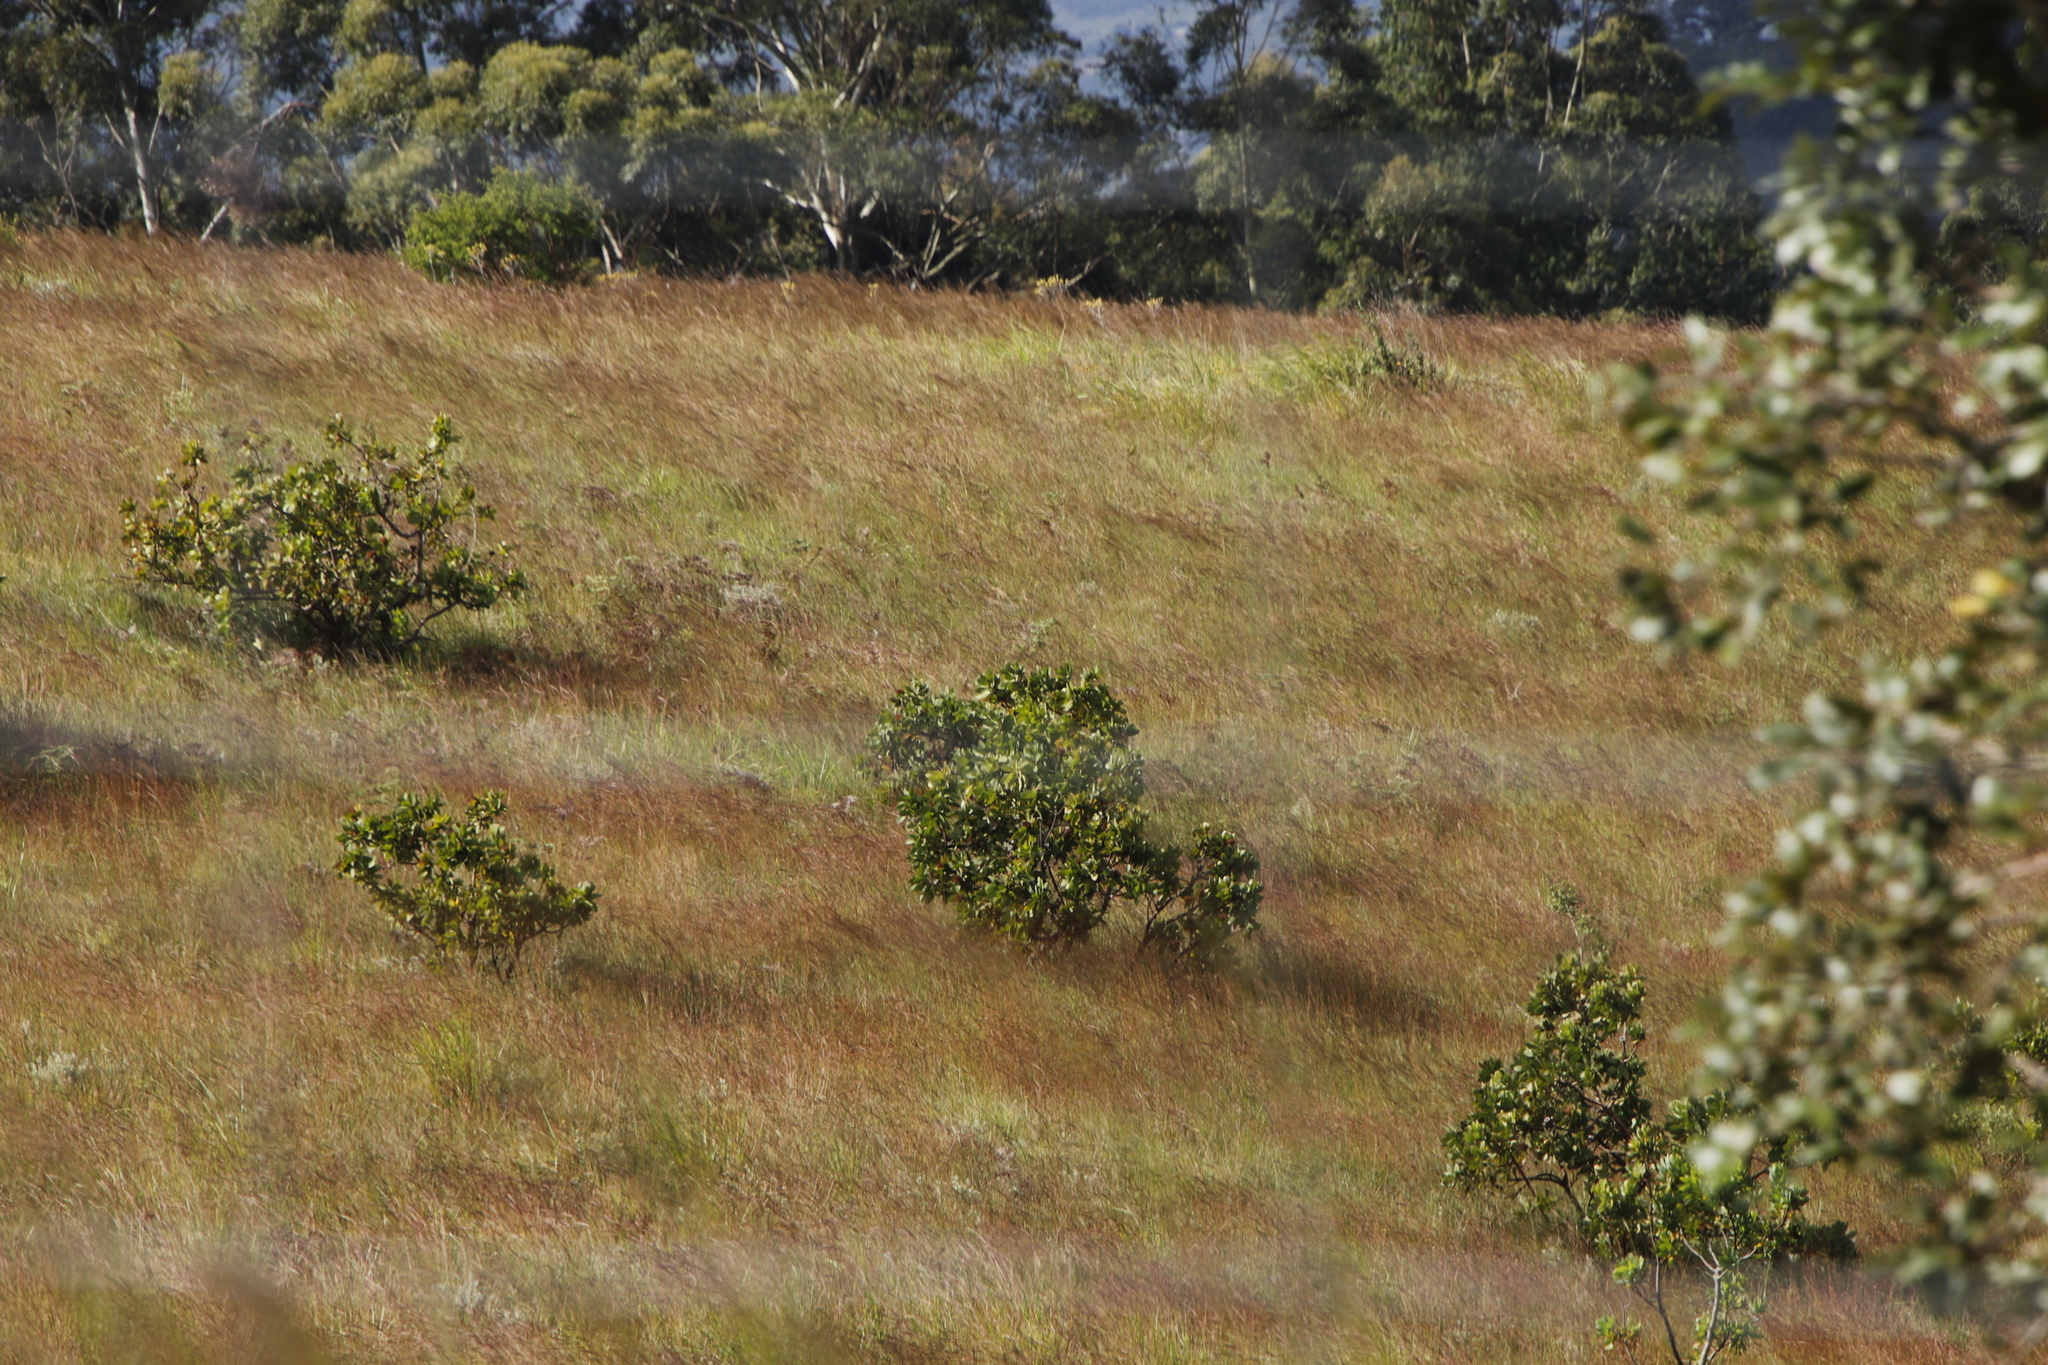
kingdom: Plantae
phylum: Tracheophyta
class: Magnoliopsida
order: Proteales
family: Proteaceae
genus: Protea
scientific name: Protea gaguedi
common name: African protea
